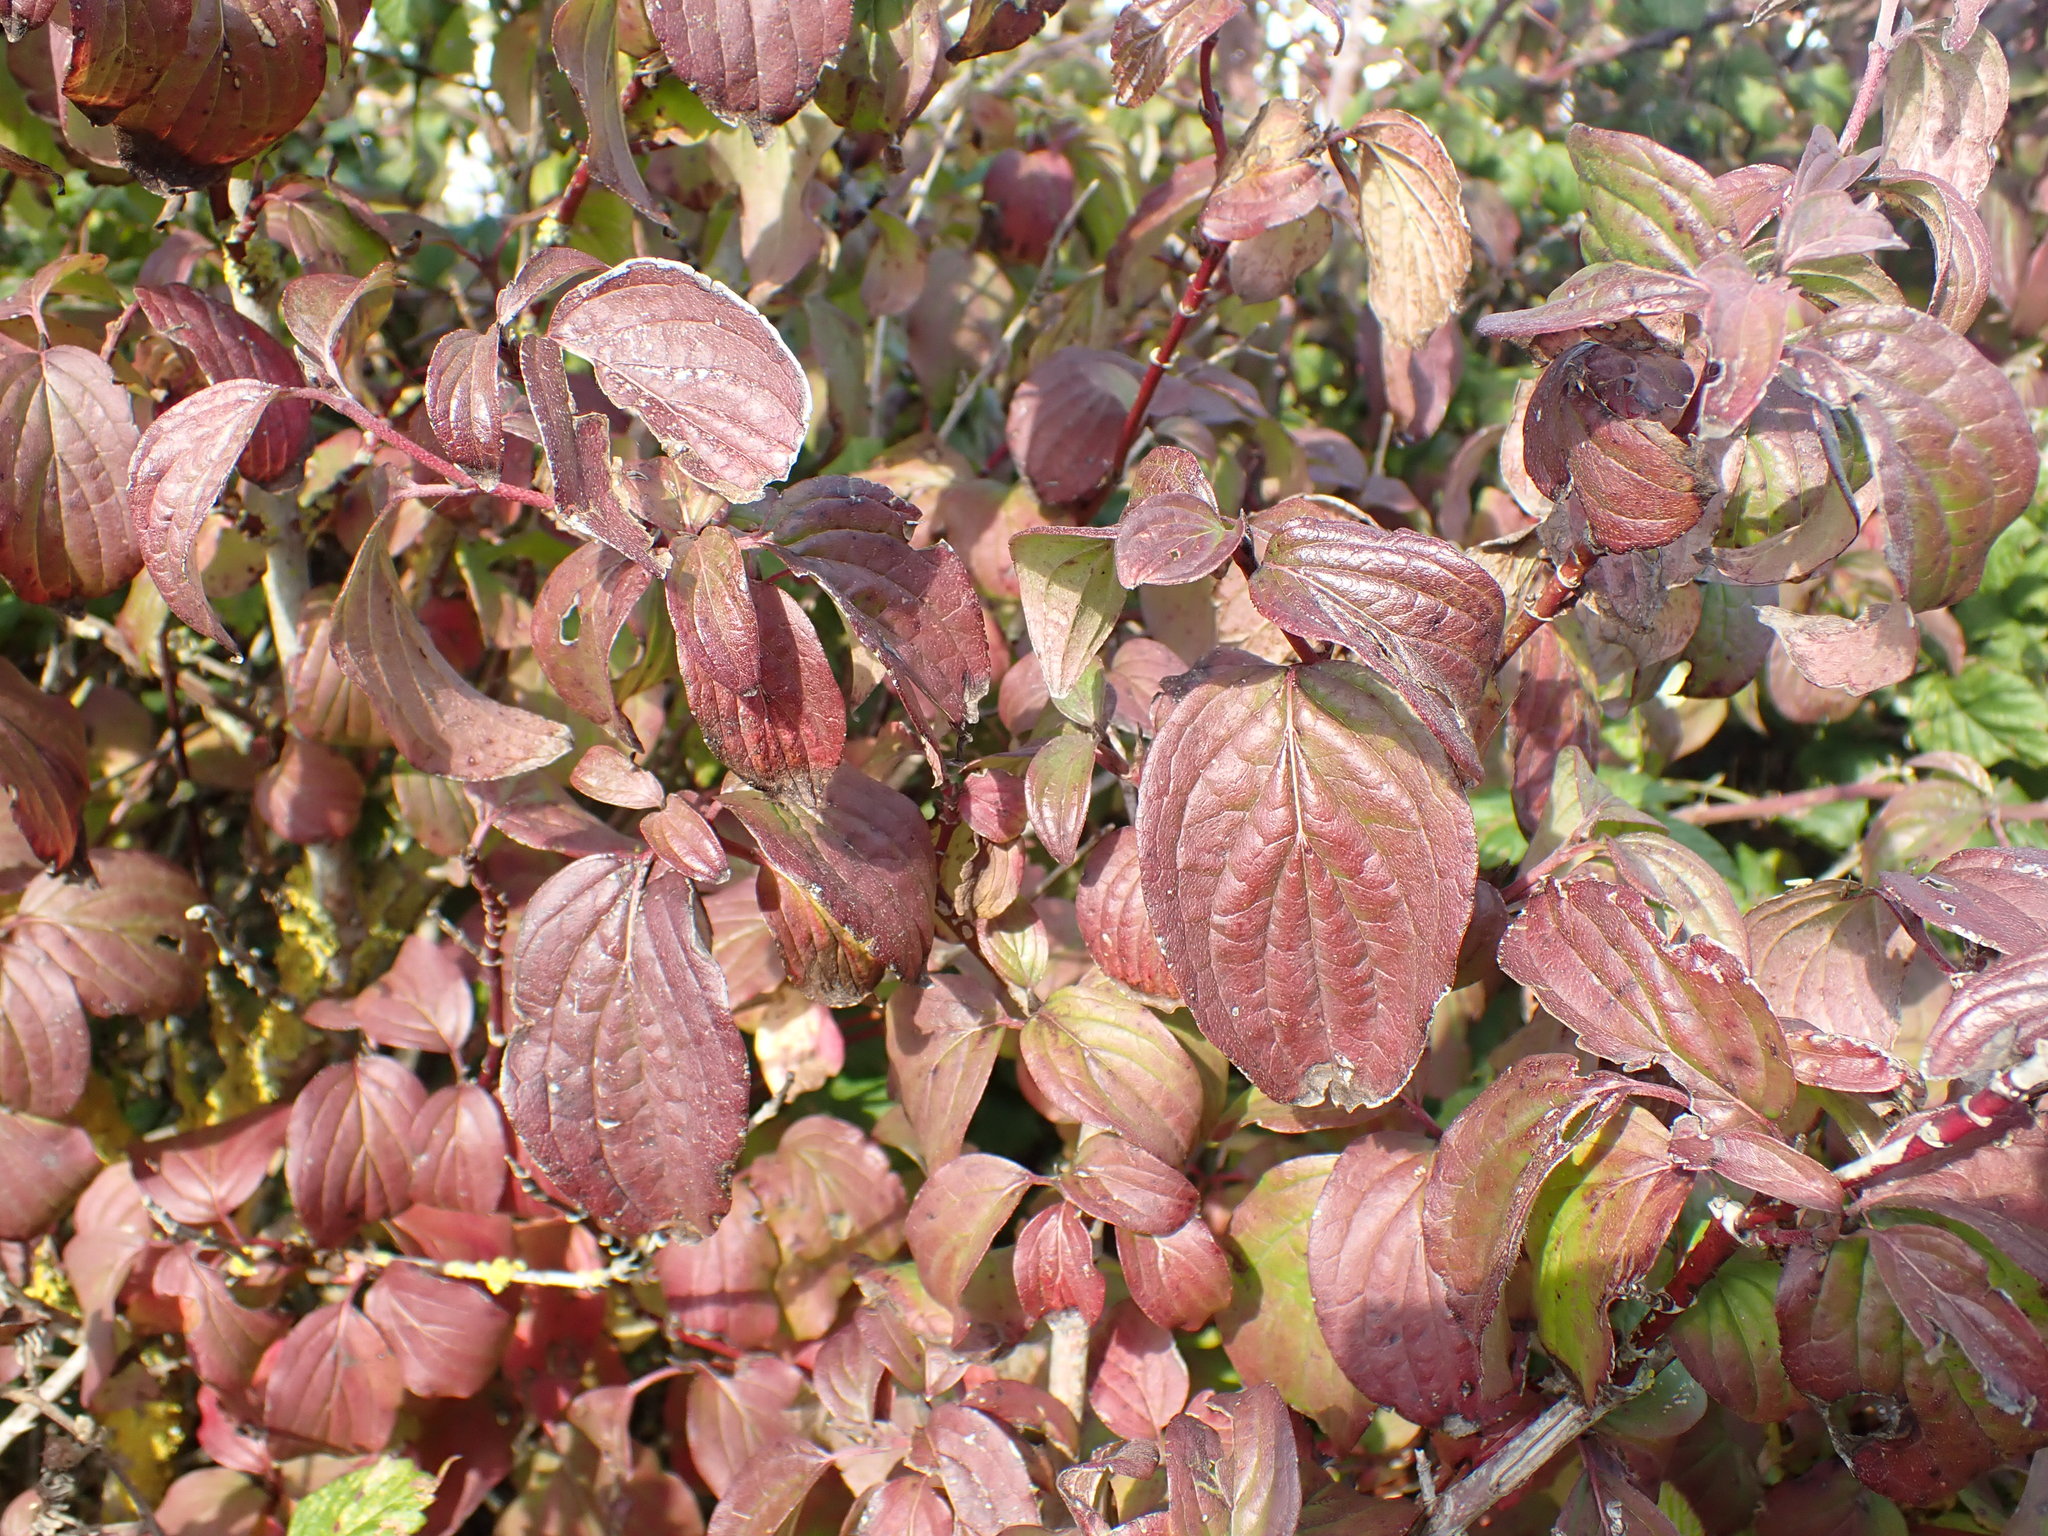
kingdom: Plantae
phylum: Tracheophyta
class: Magnoliopsida
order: Cornales
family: Cornaceae
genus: Cornus
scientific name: Cornus sanguinea
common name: Dogwood
